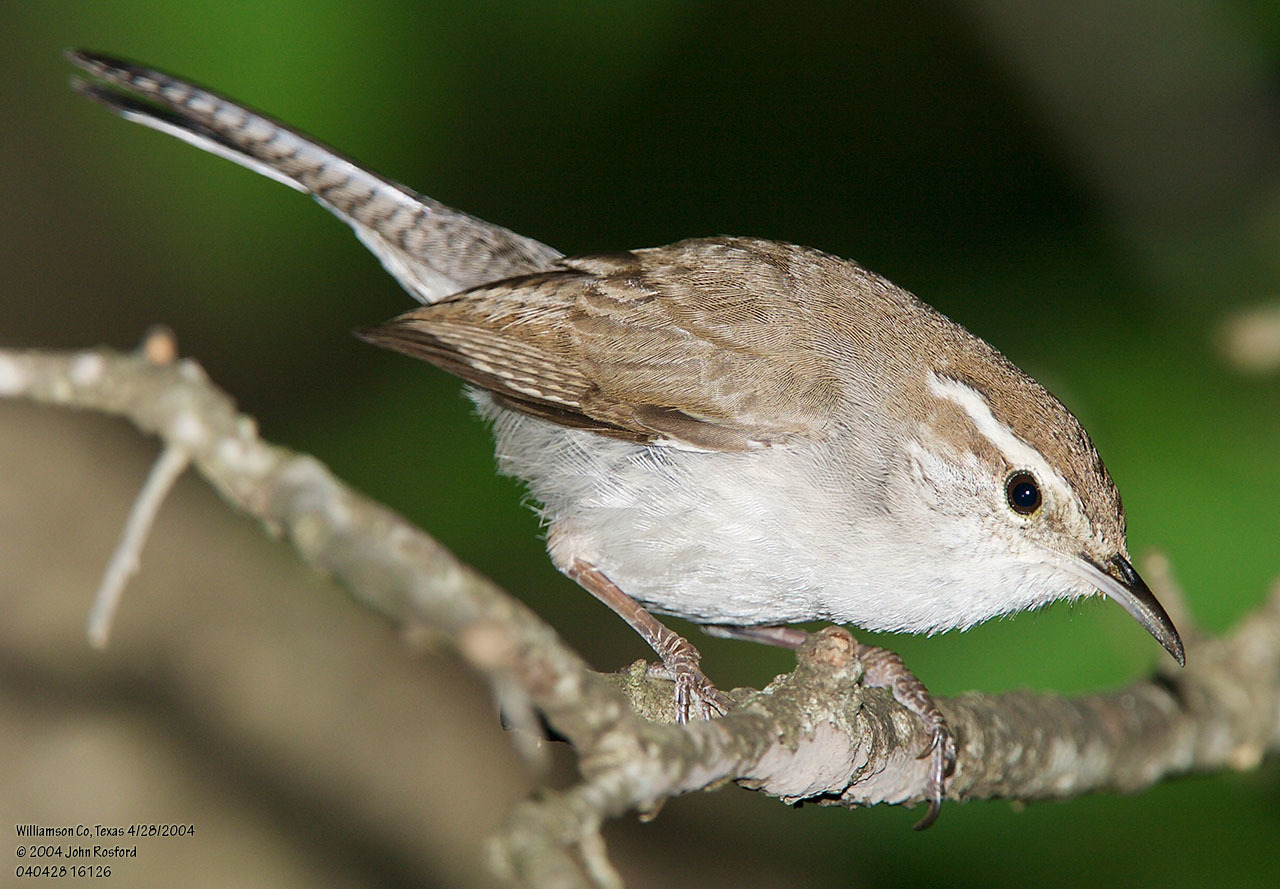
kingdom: Animalia
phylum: Chordata
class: Aves
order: Passeriformes
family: Troglodytidae
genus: Thryomanes
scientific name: Thryomanes bewickii
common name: Bewick's wren
